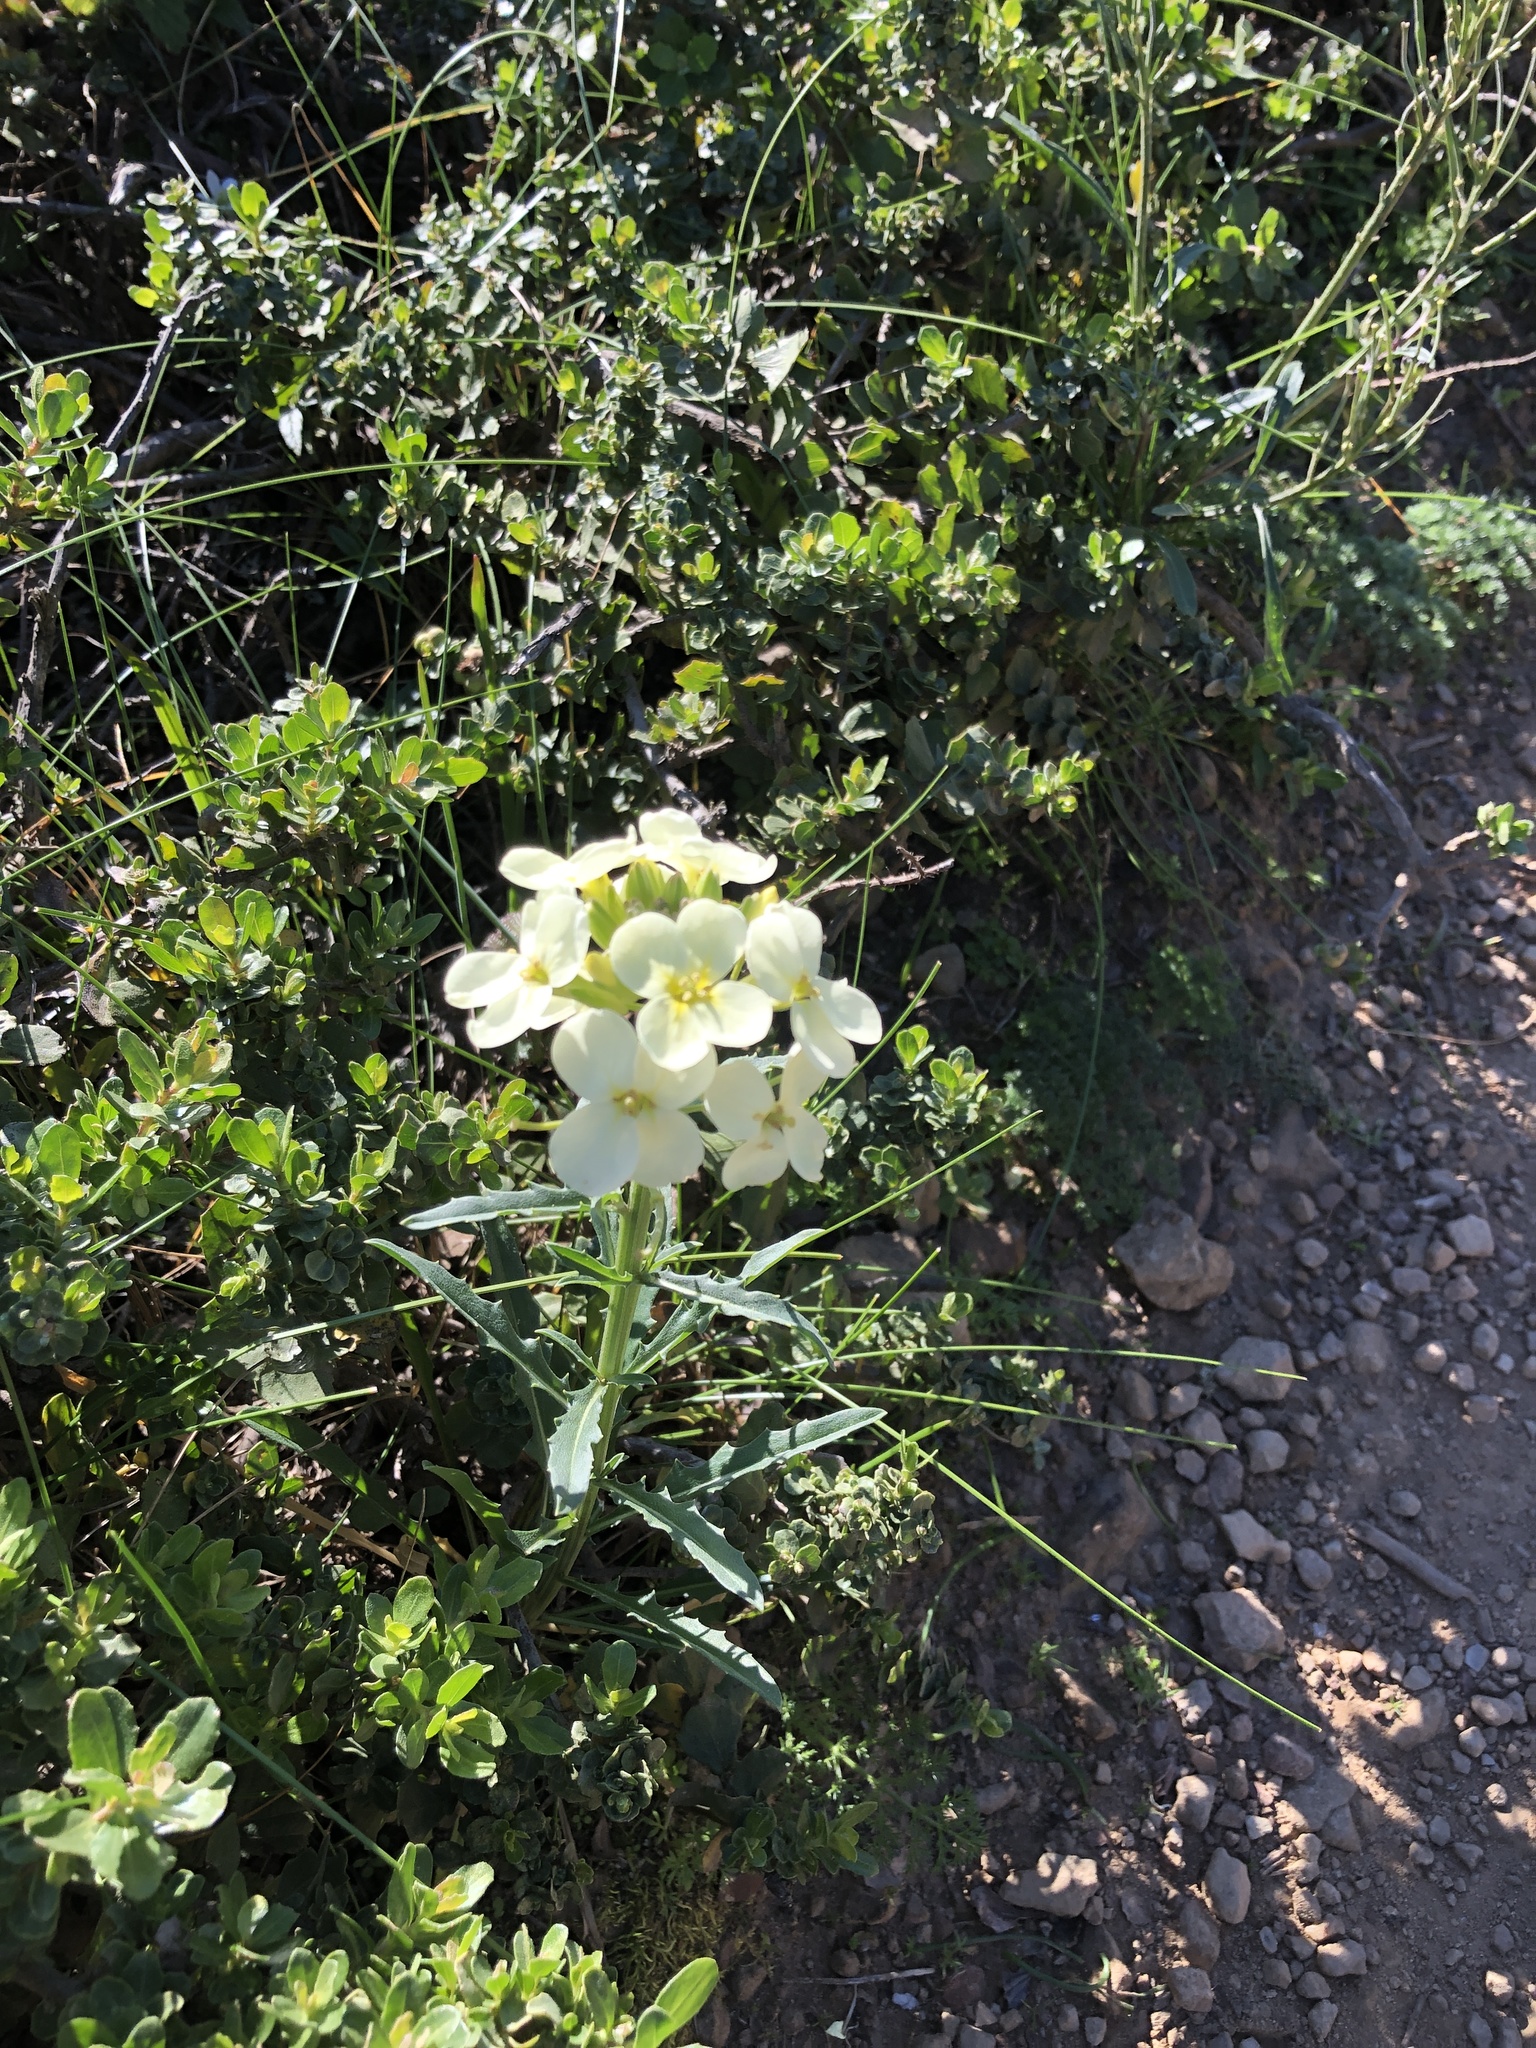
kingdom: Plantae
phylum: Tracheophyta
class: Magnoliopsida
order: Brassicales
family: Brassicaceae
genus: Erysimum
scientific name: Erysimum franciscanum
